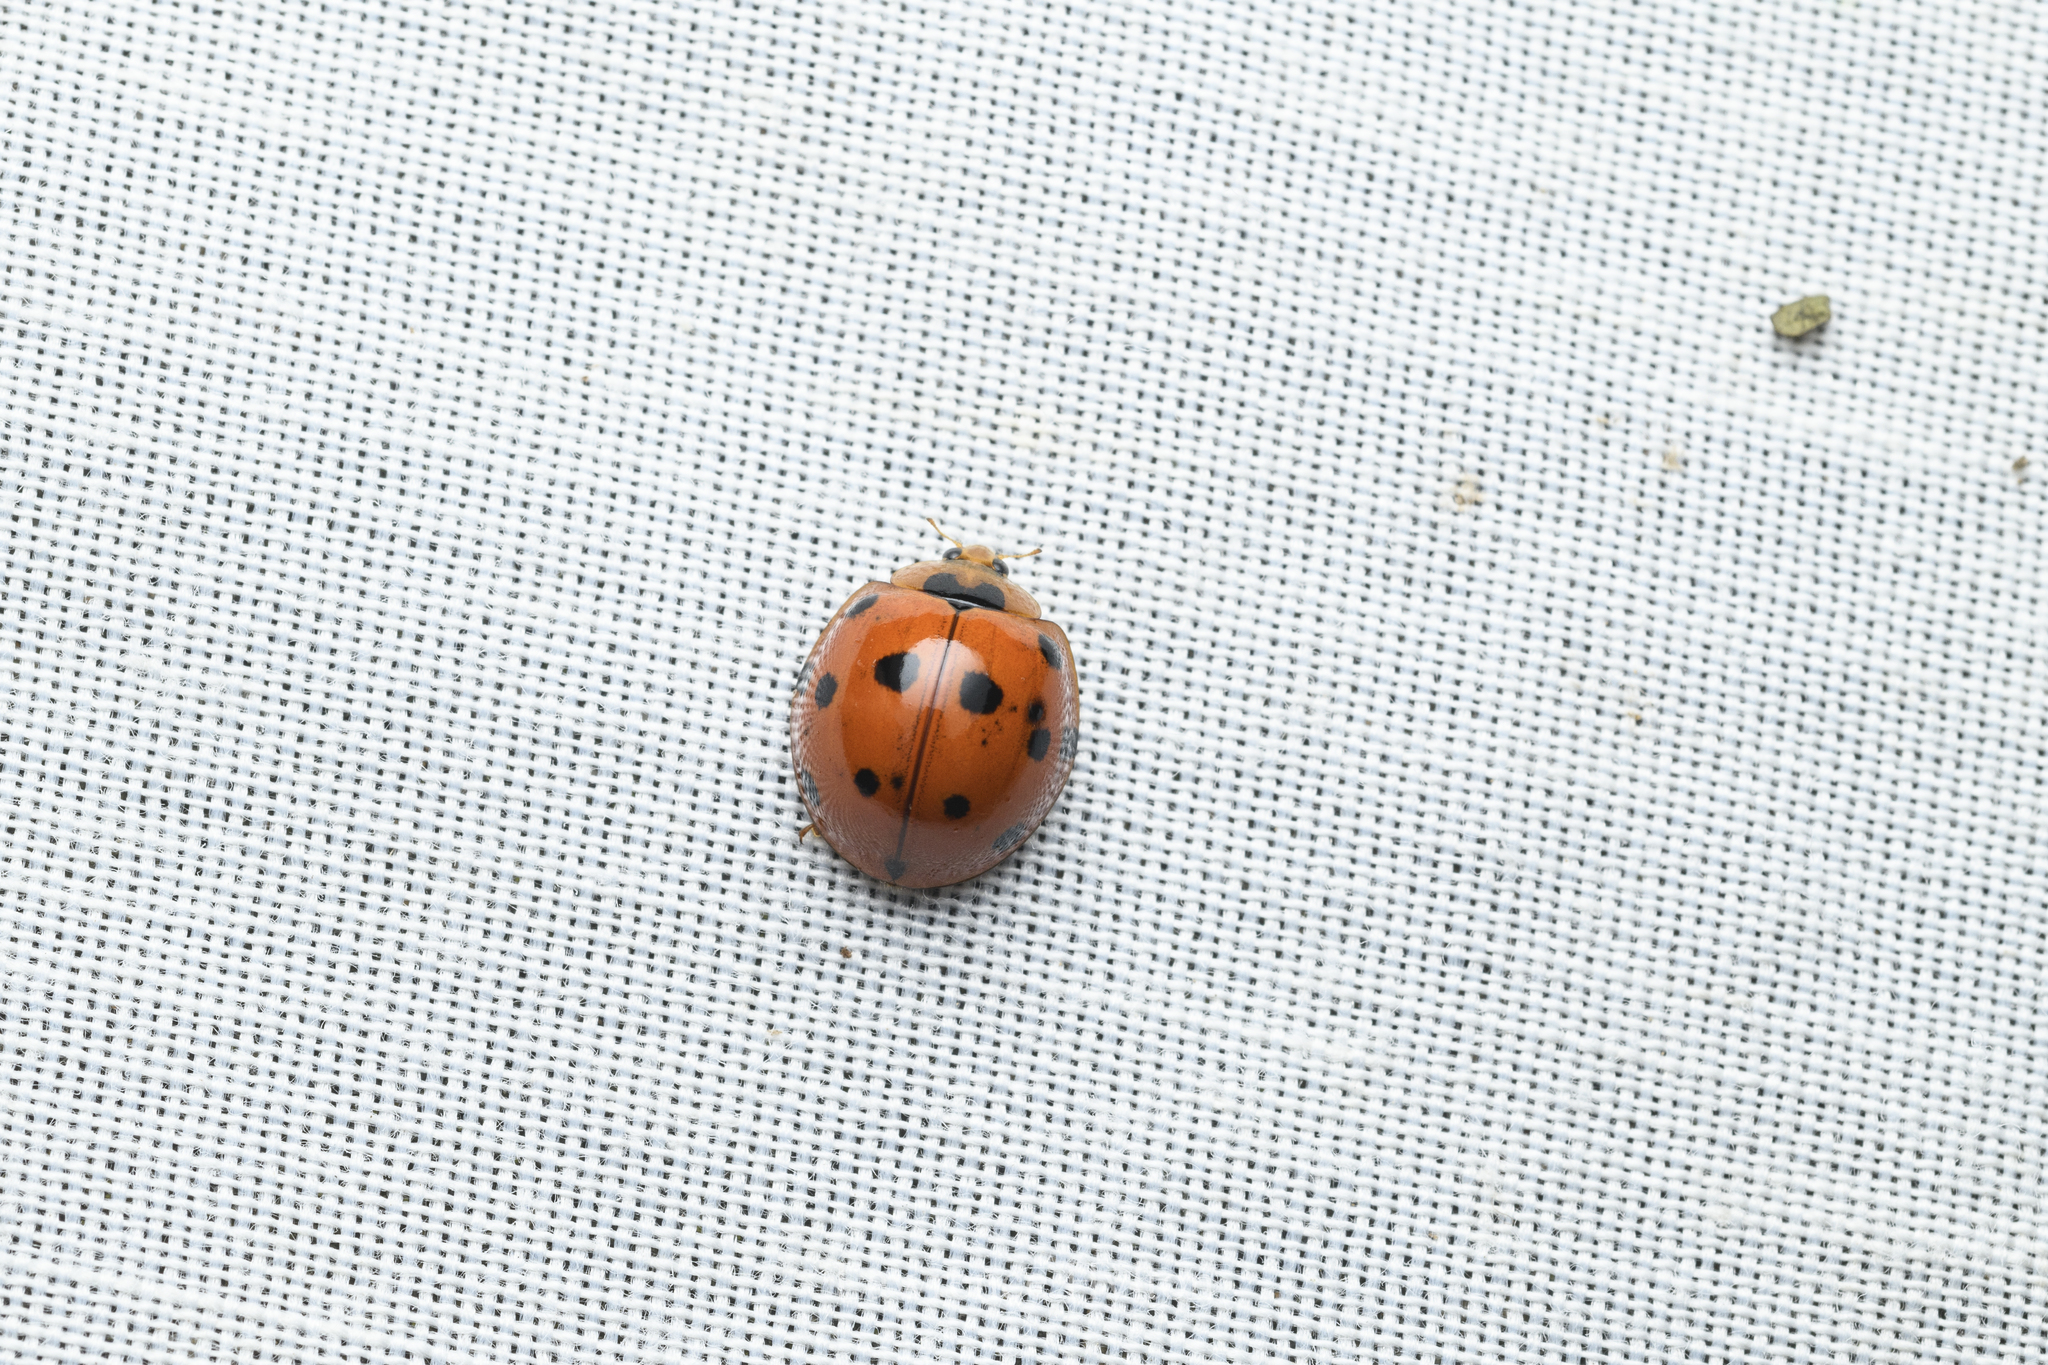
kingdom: Animalia
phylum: Arthropoda
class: Insecta
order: Coleoptera
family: Coccinellidae
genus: Harmonia
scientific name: Harmonia dimidiata
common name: Ladybird beetle
